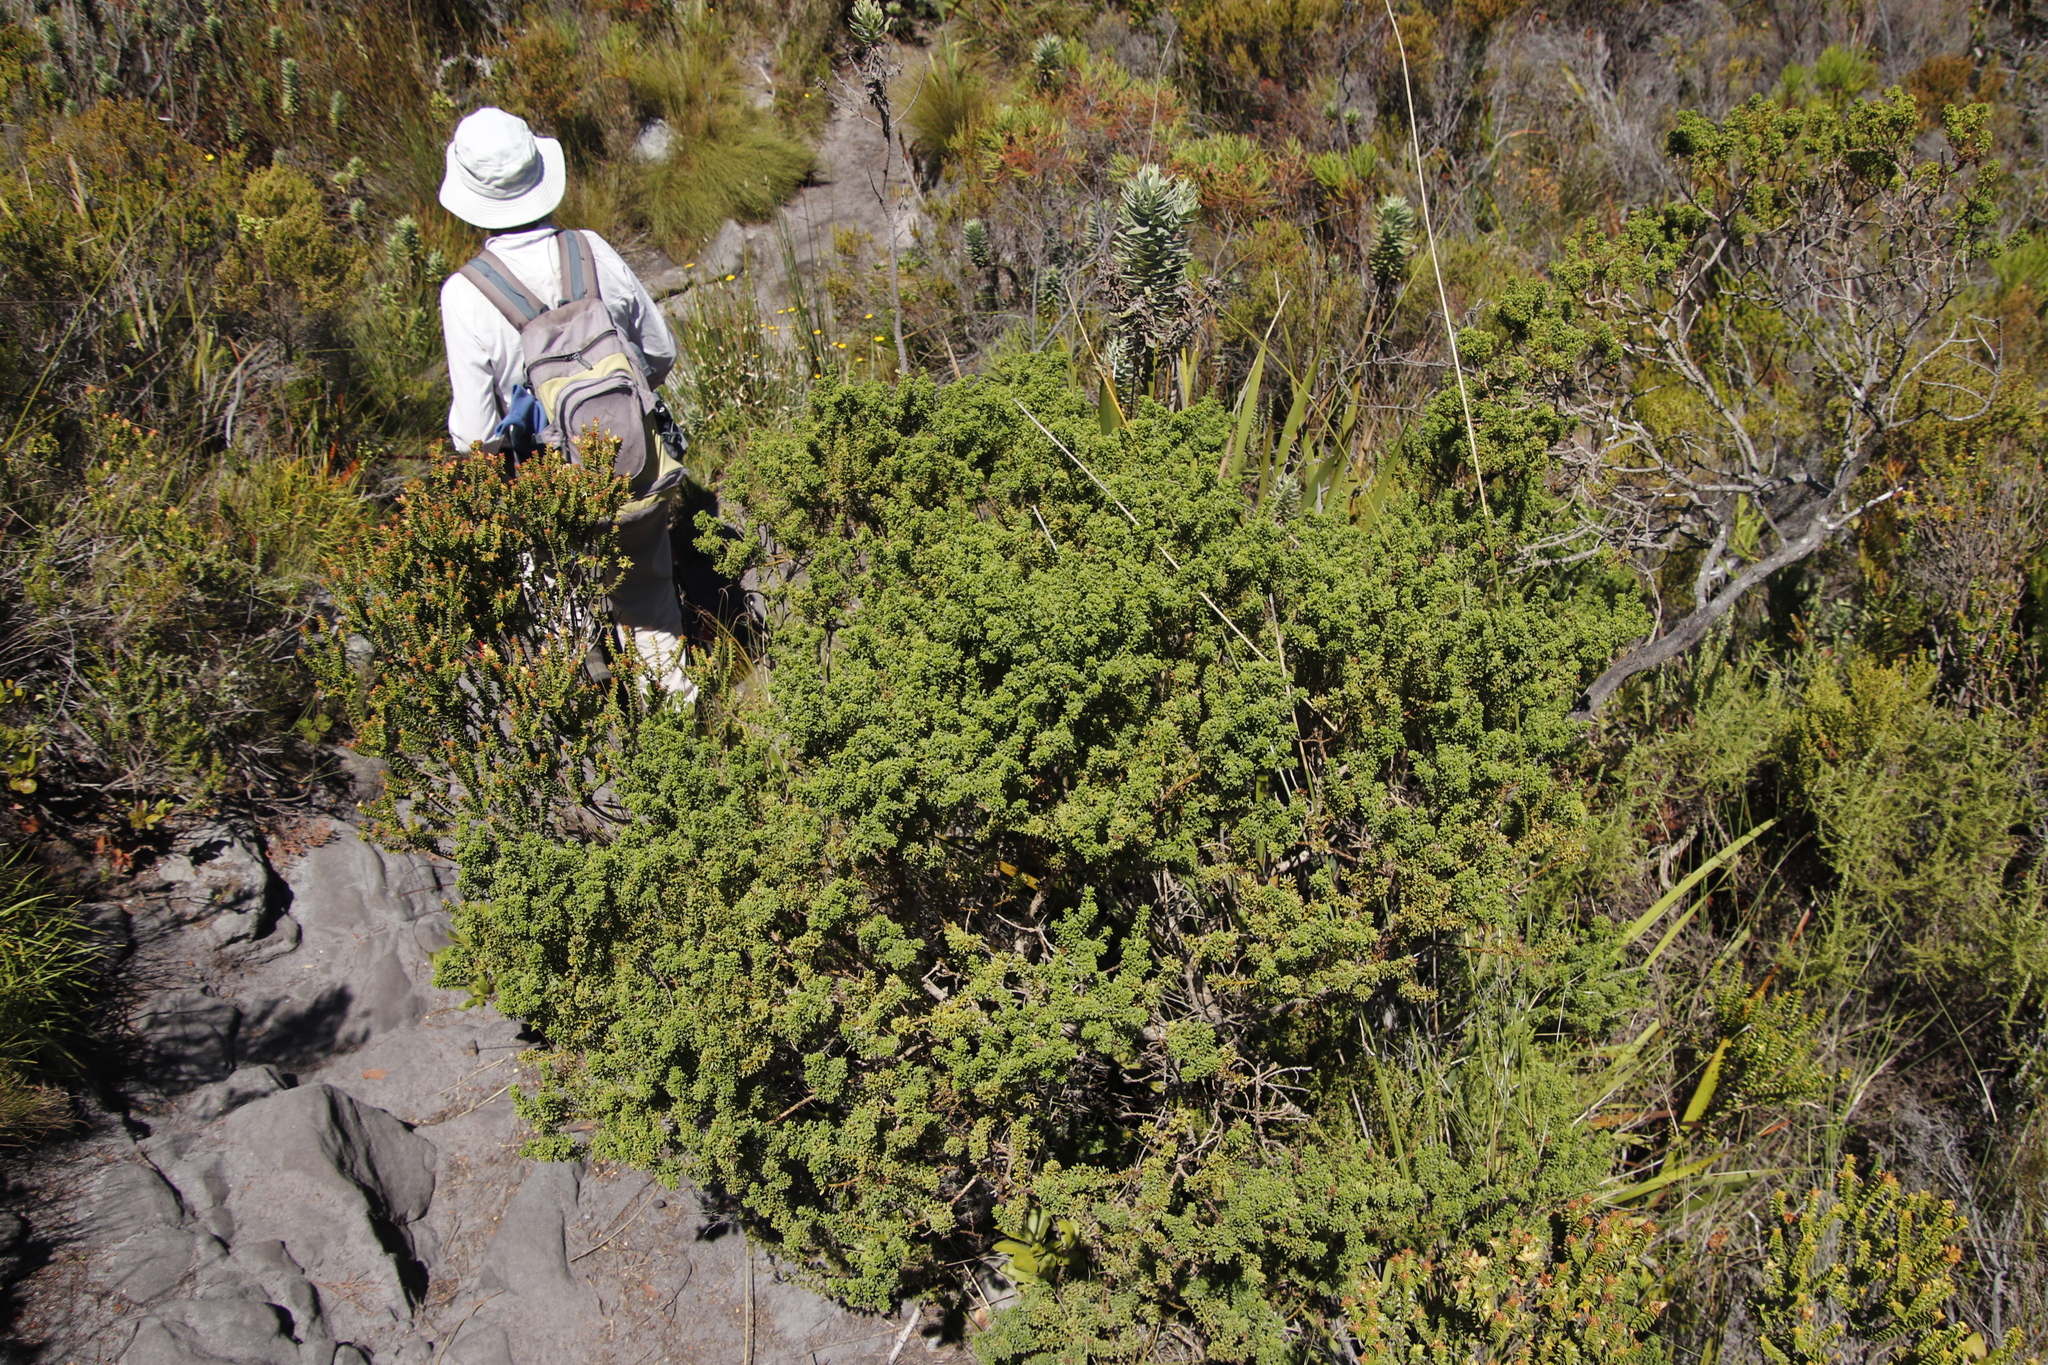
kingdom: Plantae
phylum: Tracheophyta
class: Magnoliopsida
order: Fabales
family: Fabaceae
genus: Psoralea
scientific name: Psoralea aculeata
